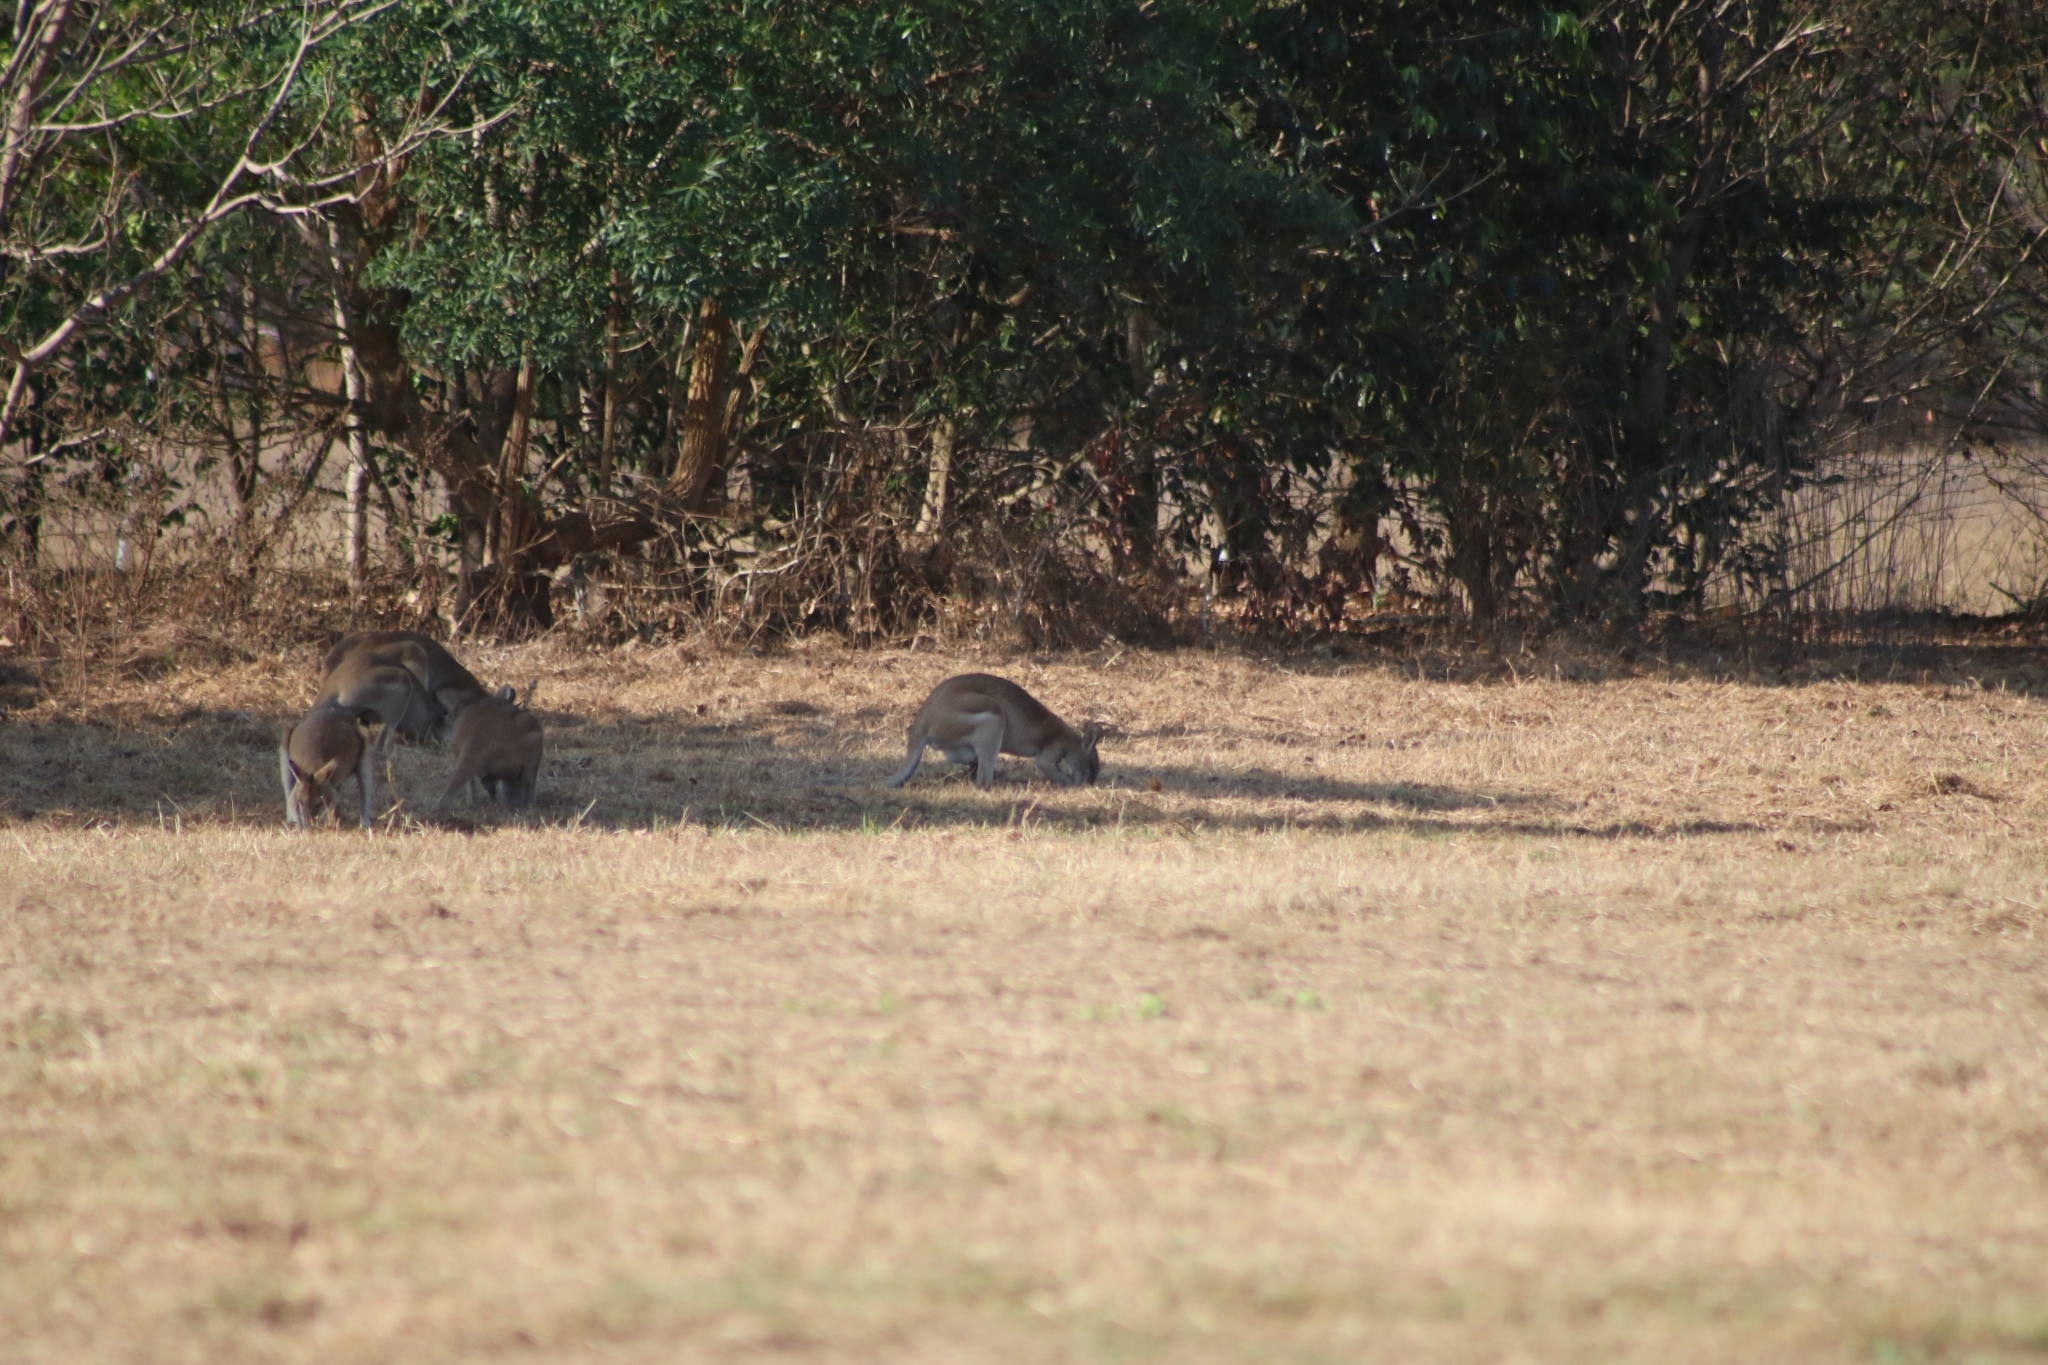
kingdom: Animalia
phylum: Chordata
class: Mammalia
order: Diprotodontia
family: Macropodidae
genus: Macropus
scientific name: Macropus agilis
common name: Agile wallaby
